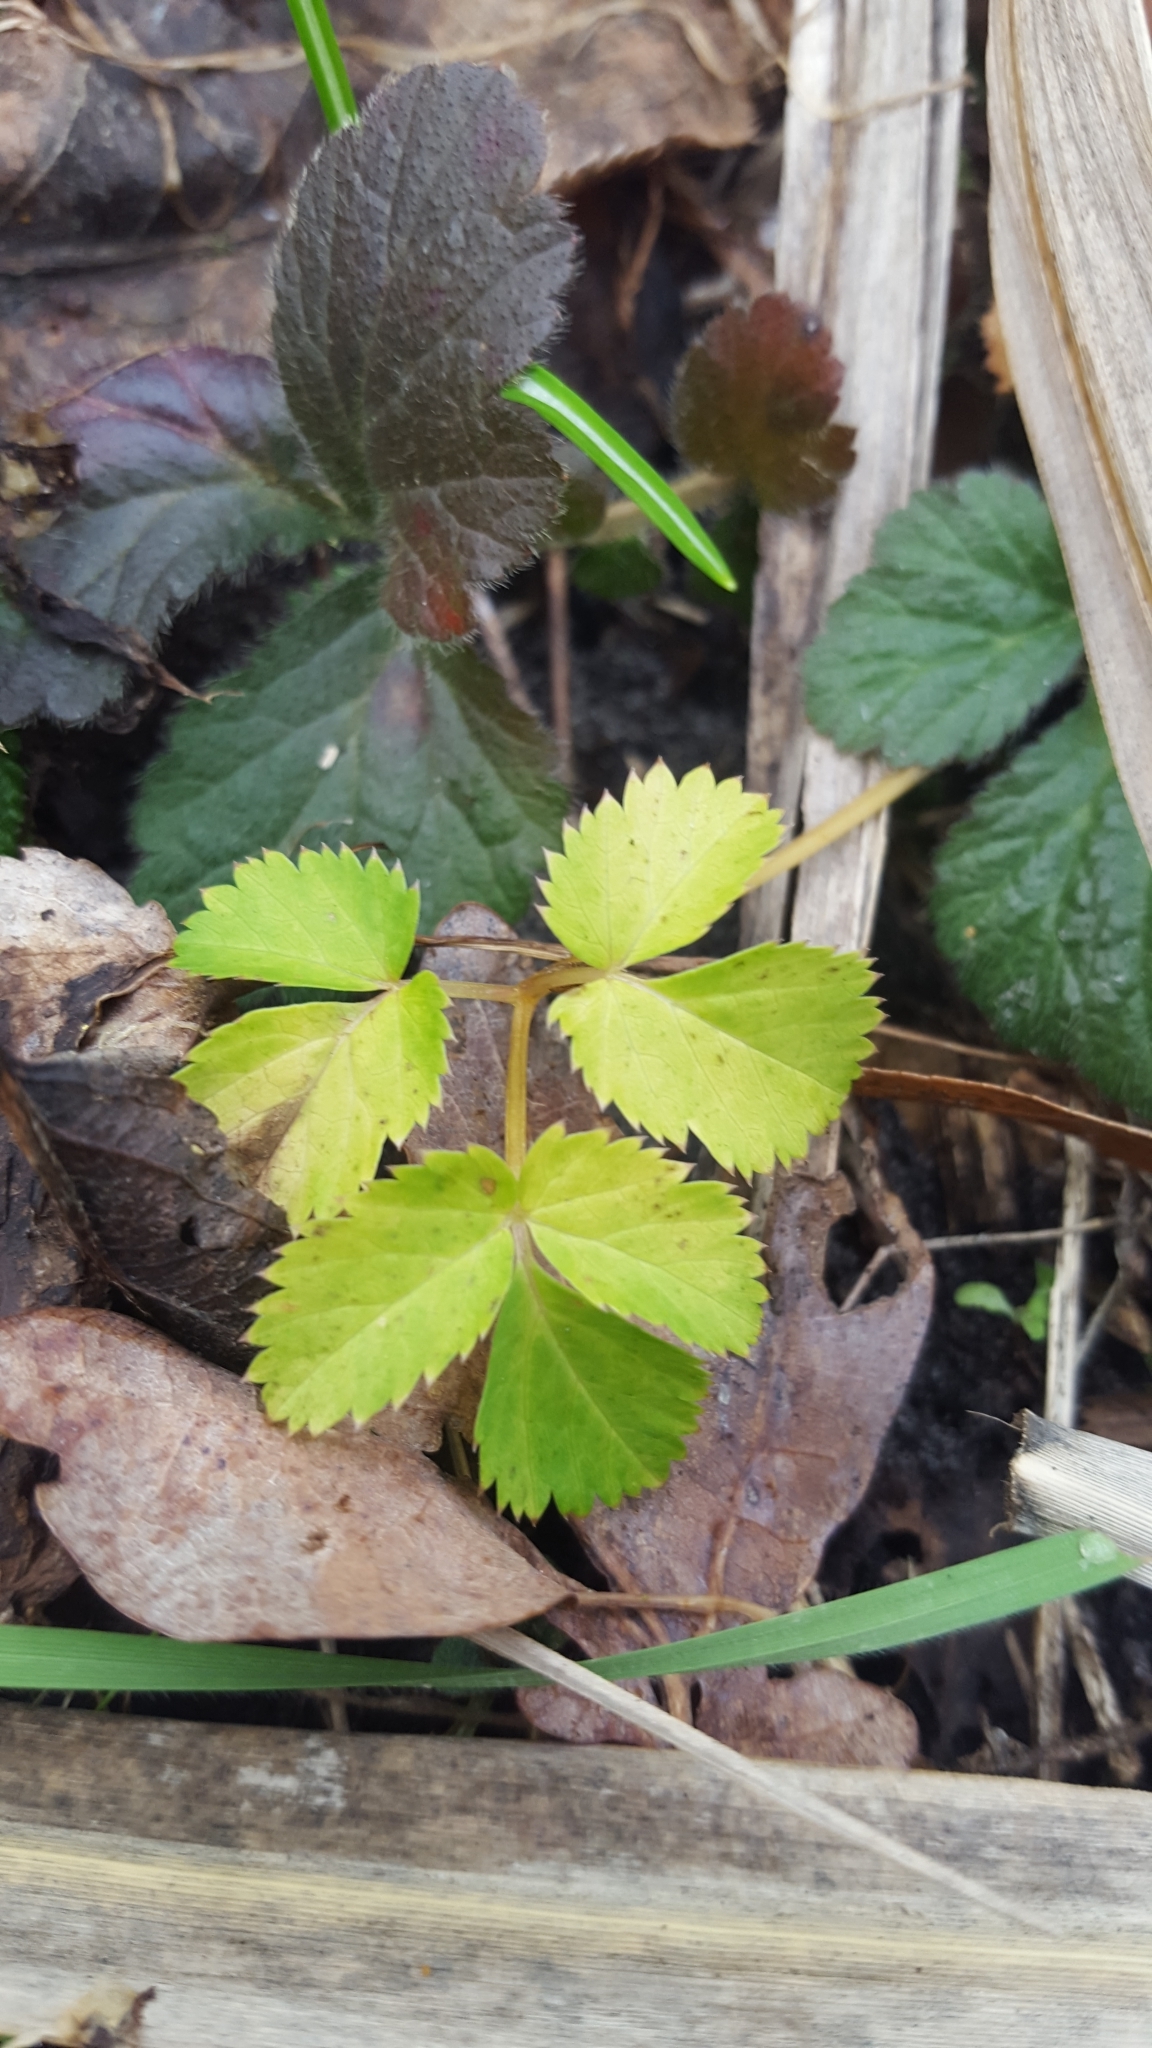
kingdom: Plantae
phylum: Tracheophyta
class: Magnoliopsida
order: Apiales
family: Apiaceae
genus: Aegopodium
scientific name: Aegopodium podagraria
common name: Ground-elder
